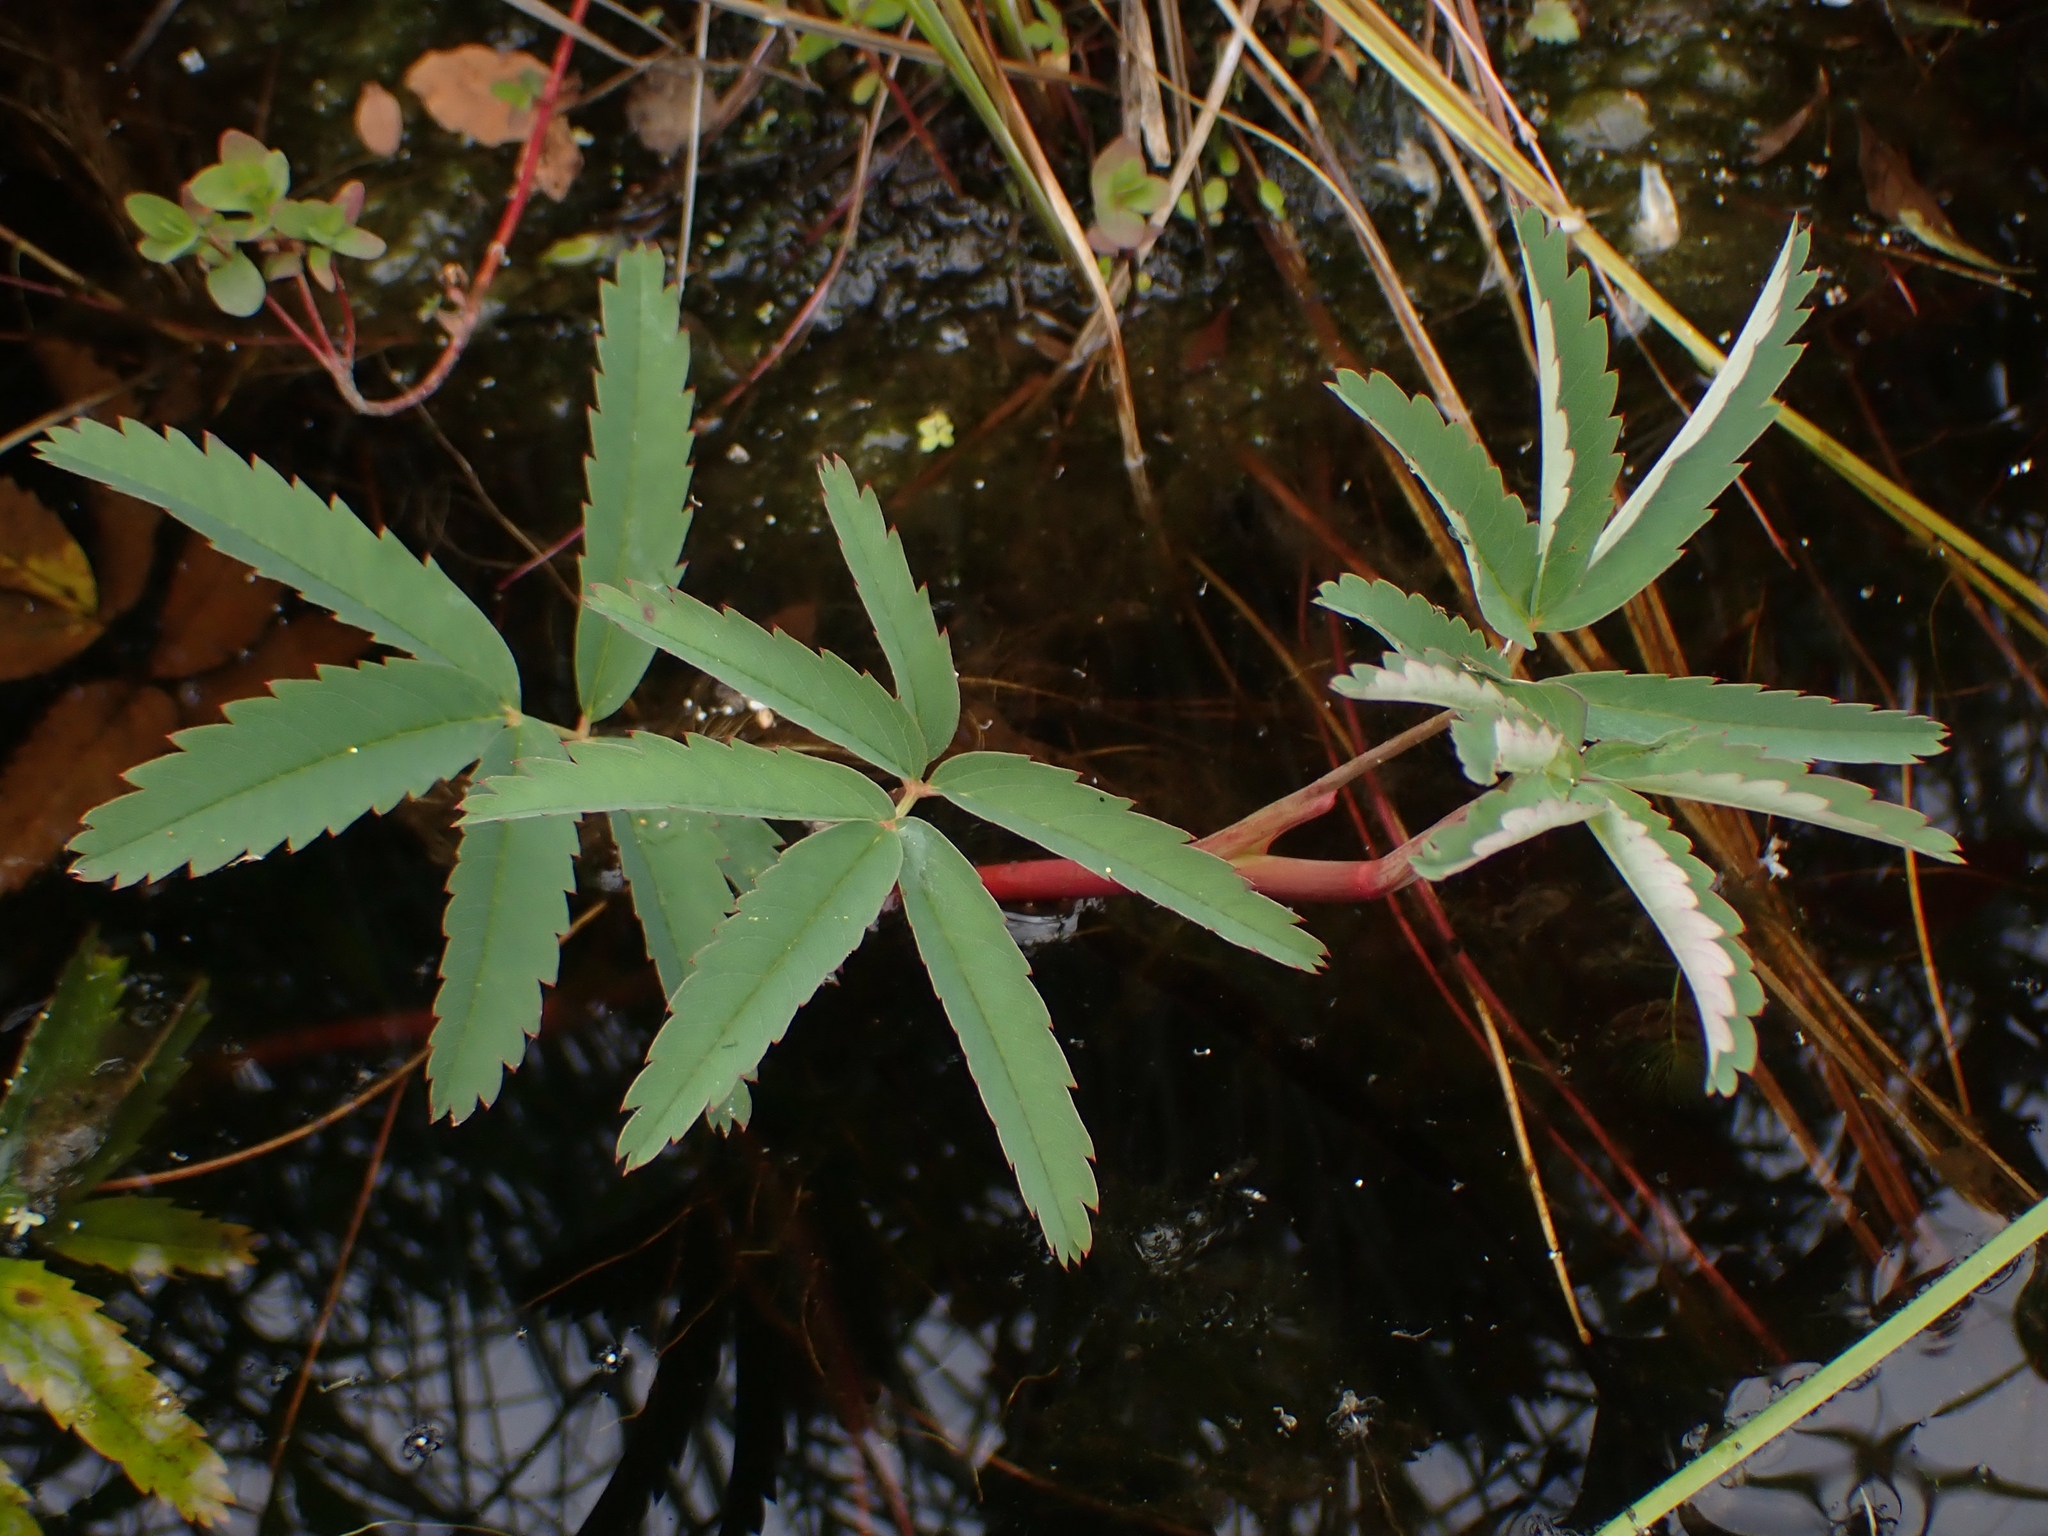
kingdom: Plantae
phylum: Tracheophyta
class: Magnoliopsida
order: Rosales
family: Rosaceae
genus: Comarum
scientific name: Comarum palustre
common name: Marsh cinquefoil
